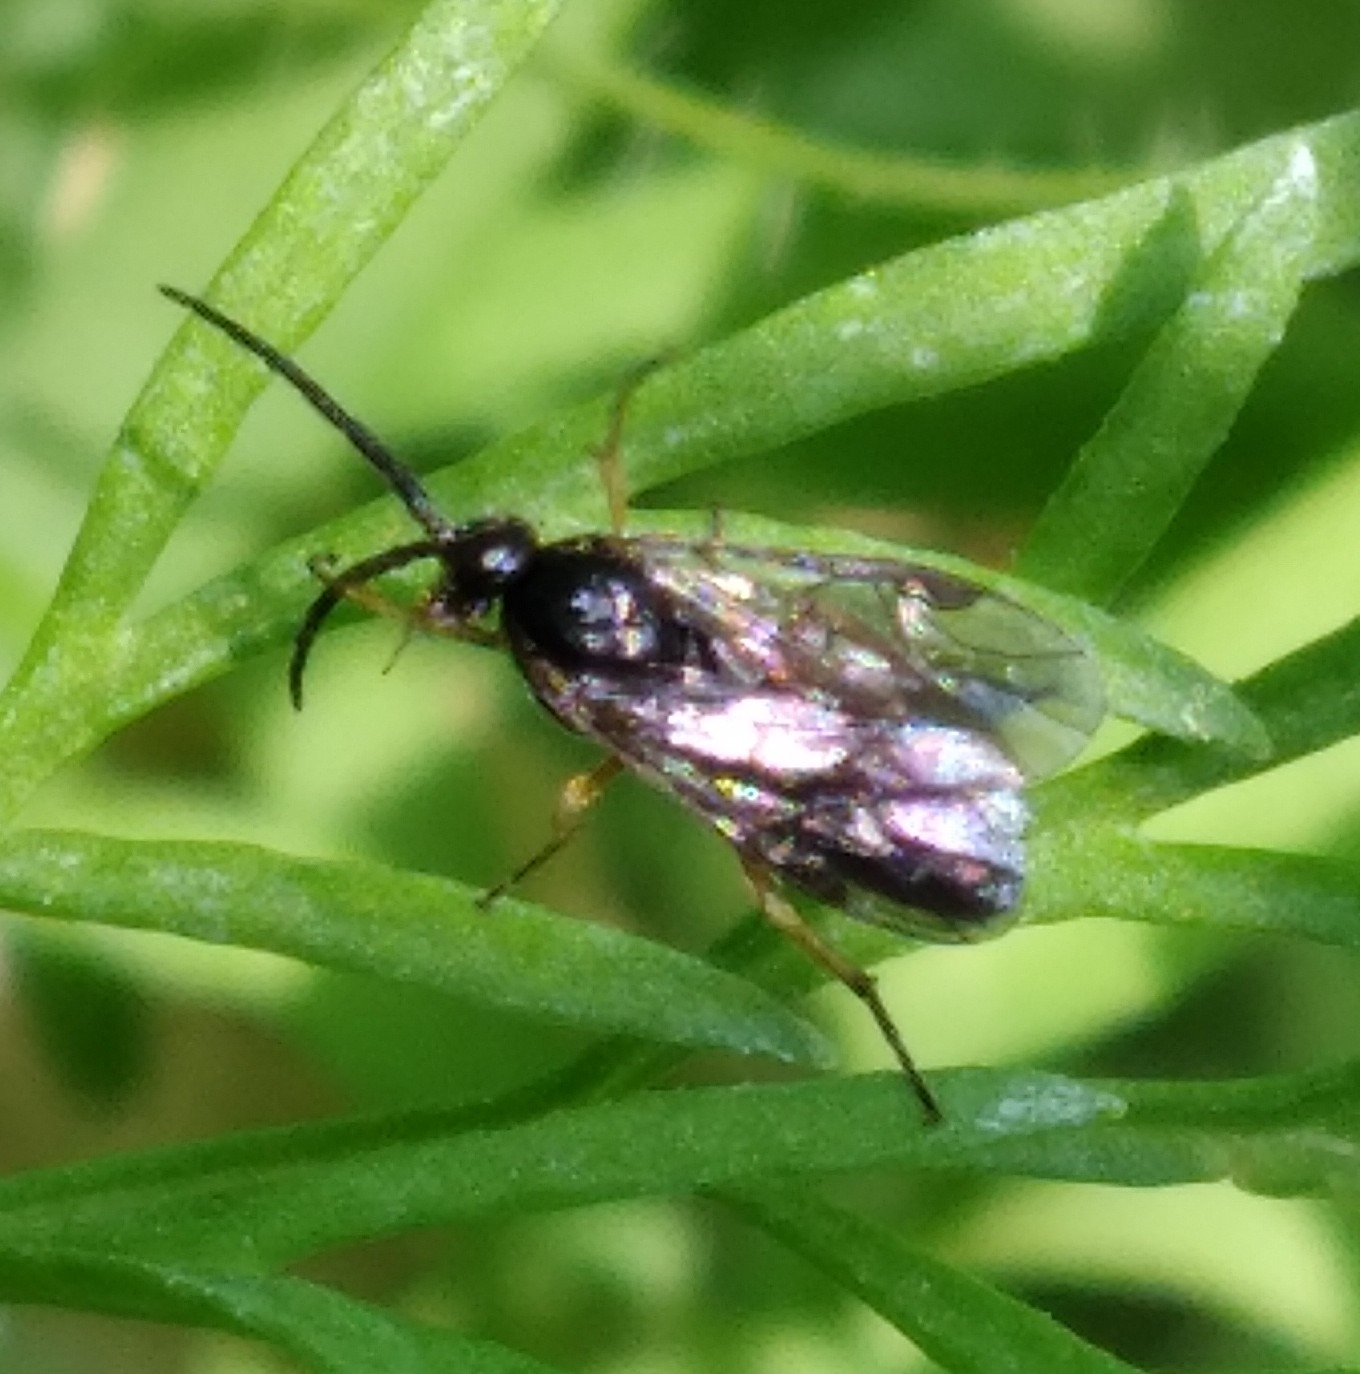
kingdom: Animalia
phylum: Arthropoda
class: Insecta
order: Hymenoptera
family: Tenthredinidae
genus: Pontania
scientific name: Pontania proxima
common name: Common sawfly
